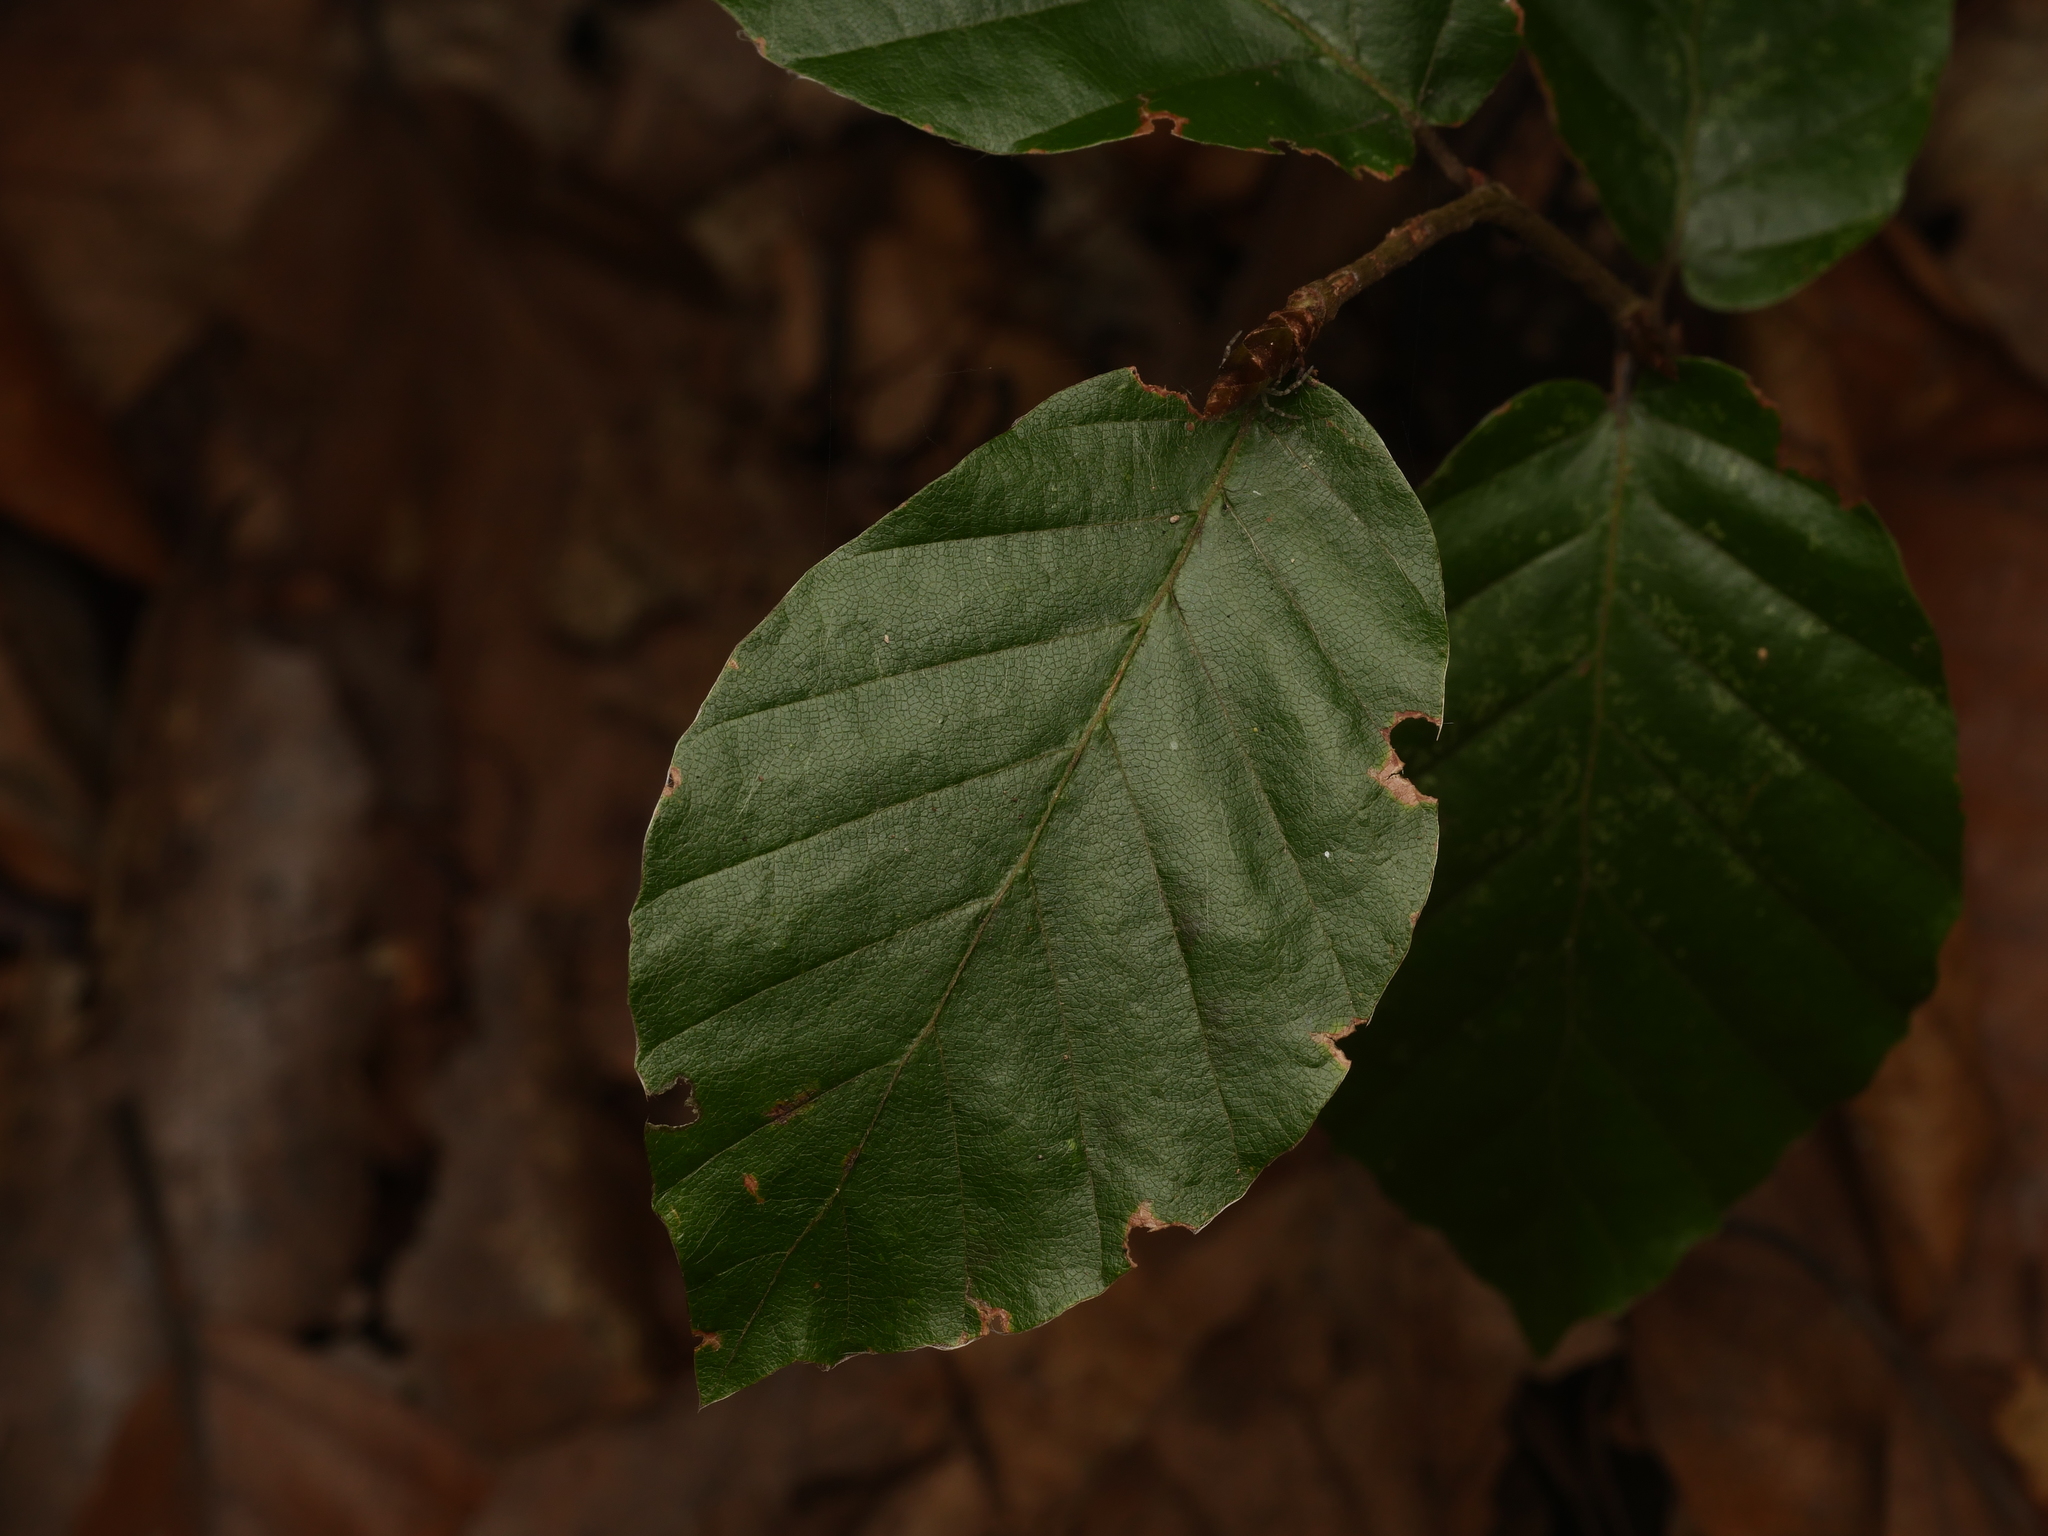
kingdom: Plantae
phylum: Tracheophyta
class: Magnoliopsida
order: Fagales
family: Fagaceae
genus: Fagus
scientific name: Fagus sylvatica
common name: Beech
